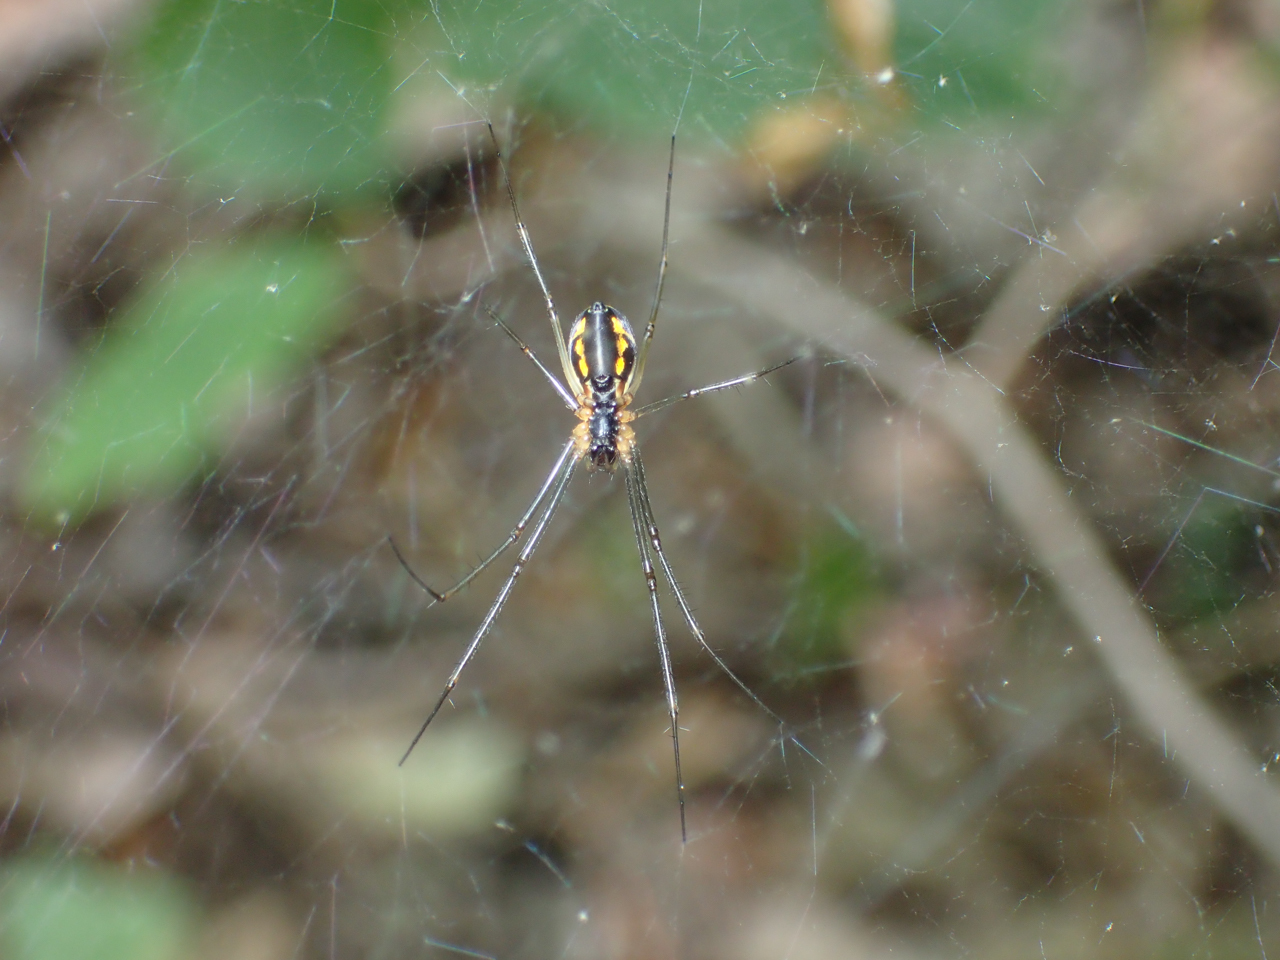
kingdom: Animalia
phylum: Arthropoda
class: Arachnida
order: Araneae
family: Linyphiidae
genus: Neriene
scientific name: Neriene radiata
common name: Filmy dome spider
